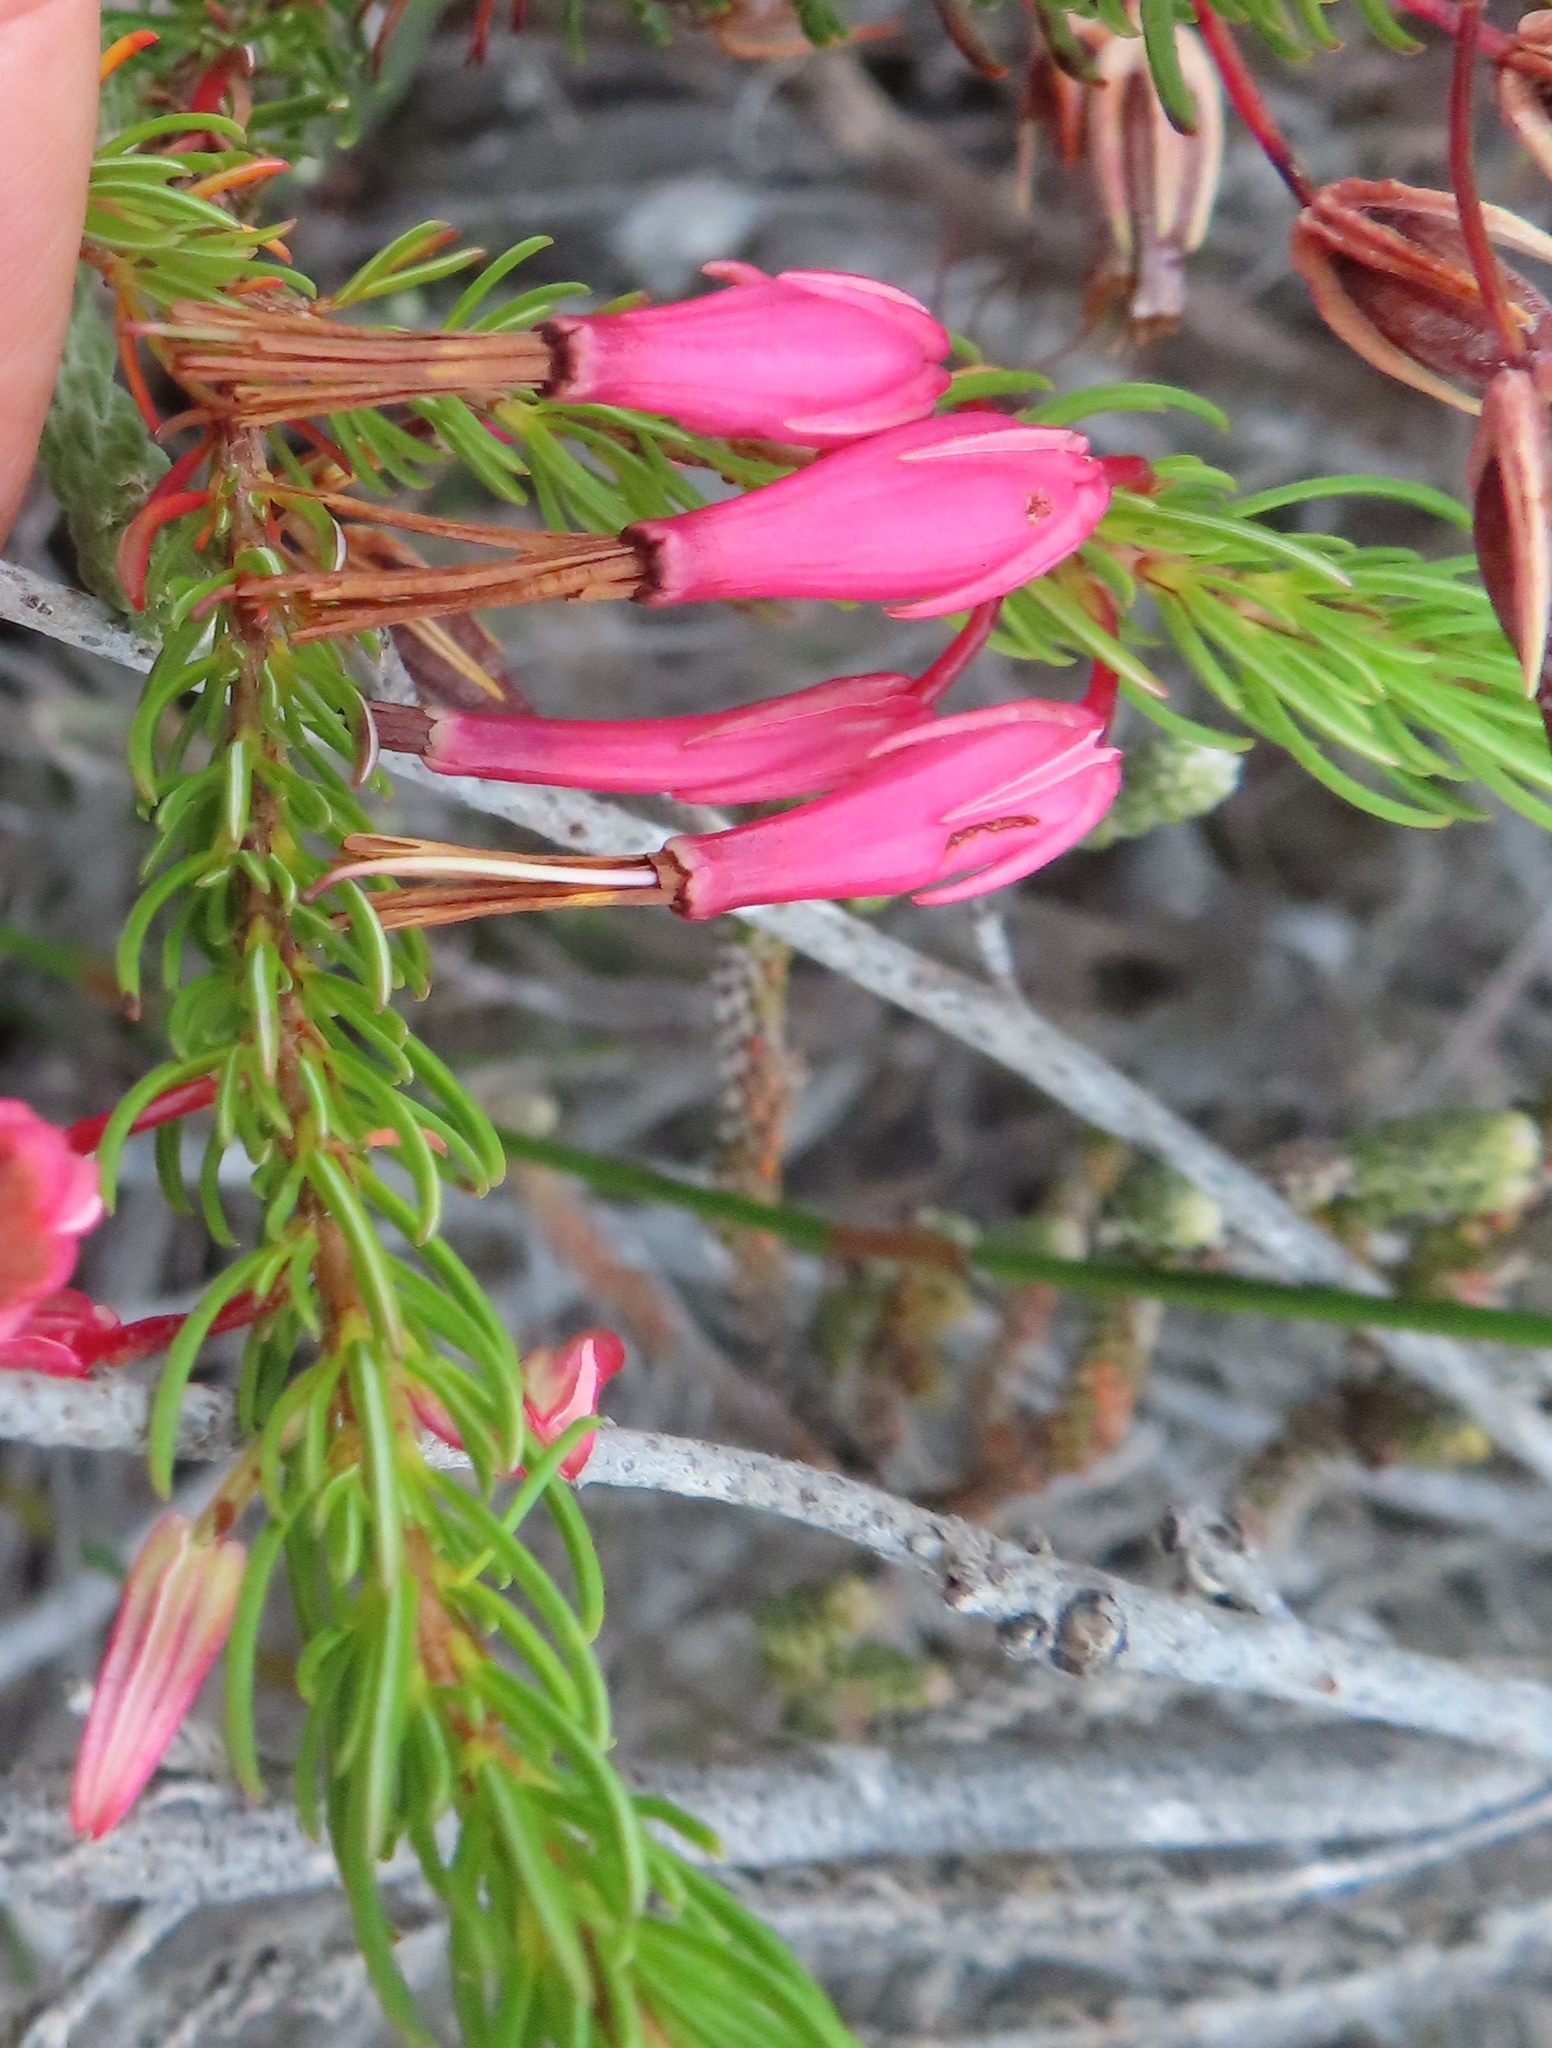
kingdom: Plantae
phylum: Tracheophyta
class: Magnoliopsida
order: Ericales
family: Ericaceae
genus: Erica
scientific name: Erica plukenetii
